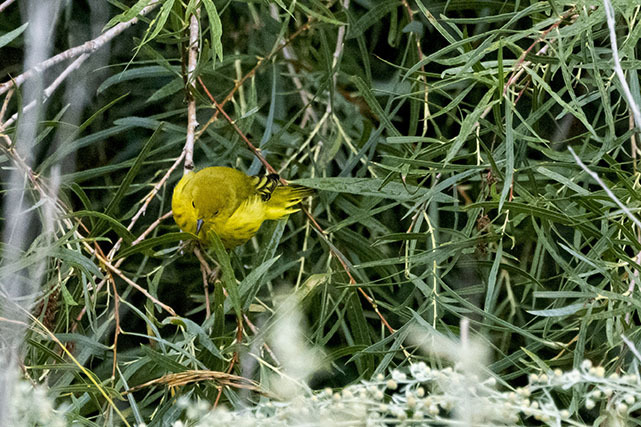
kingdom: Animalia
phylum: Chordata
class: Aves
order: Passeriformes
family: Parulidae
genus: Setophaga
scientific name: Setophaga petechia
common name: Yellow warbler
